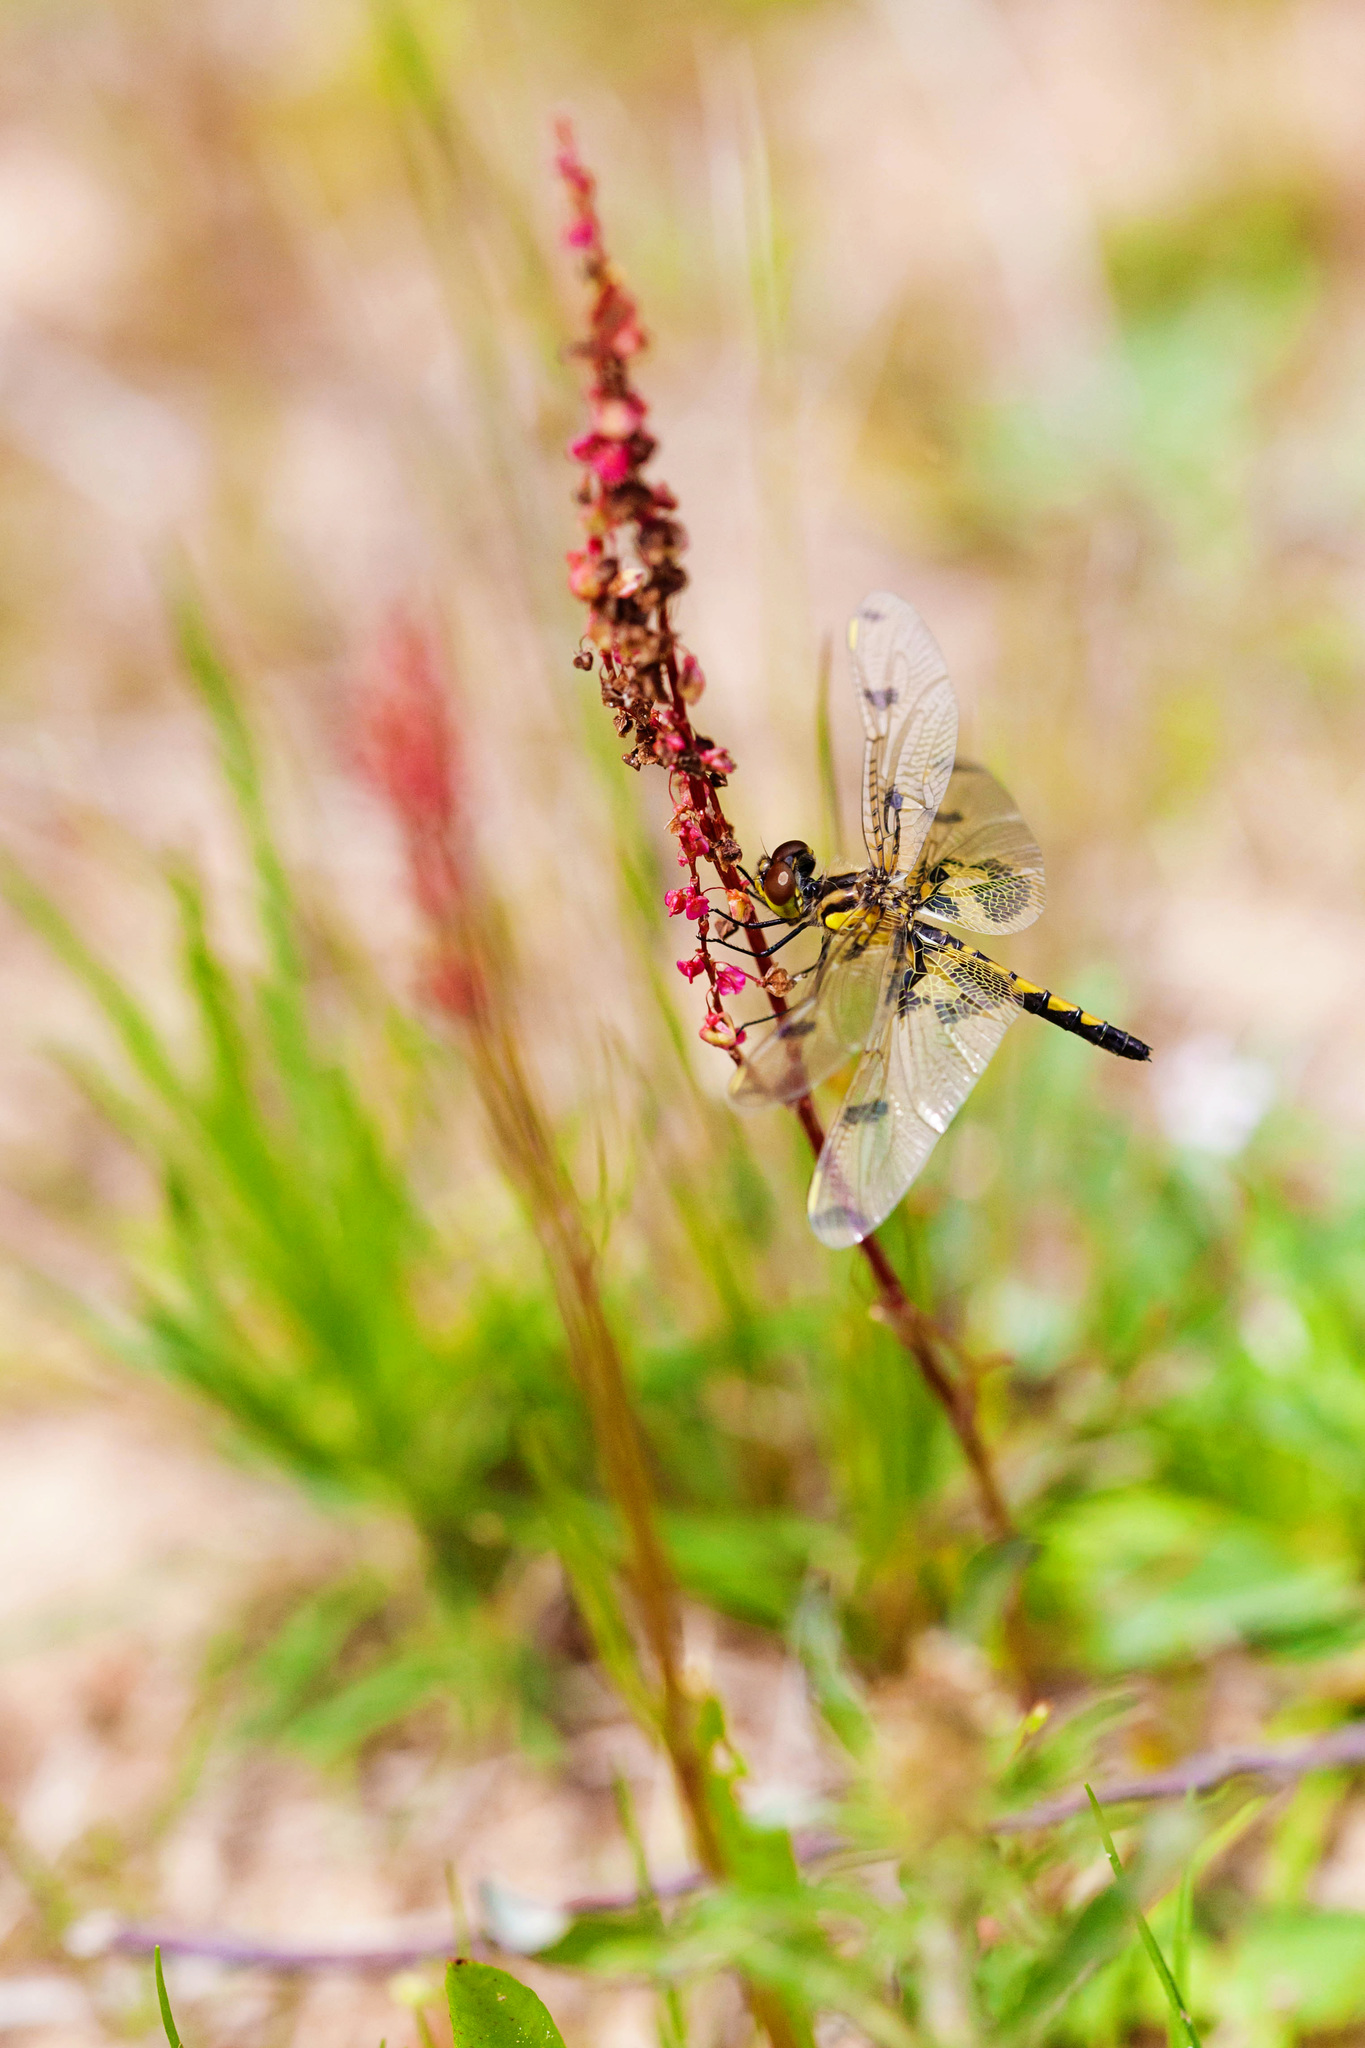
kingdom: Animalia
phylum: Arthropoda
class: Insecta
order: Odonata
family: Libellulidae
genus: Celithemis
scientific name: Celithemis elisa
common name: Calico pennant
